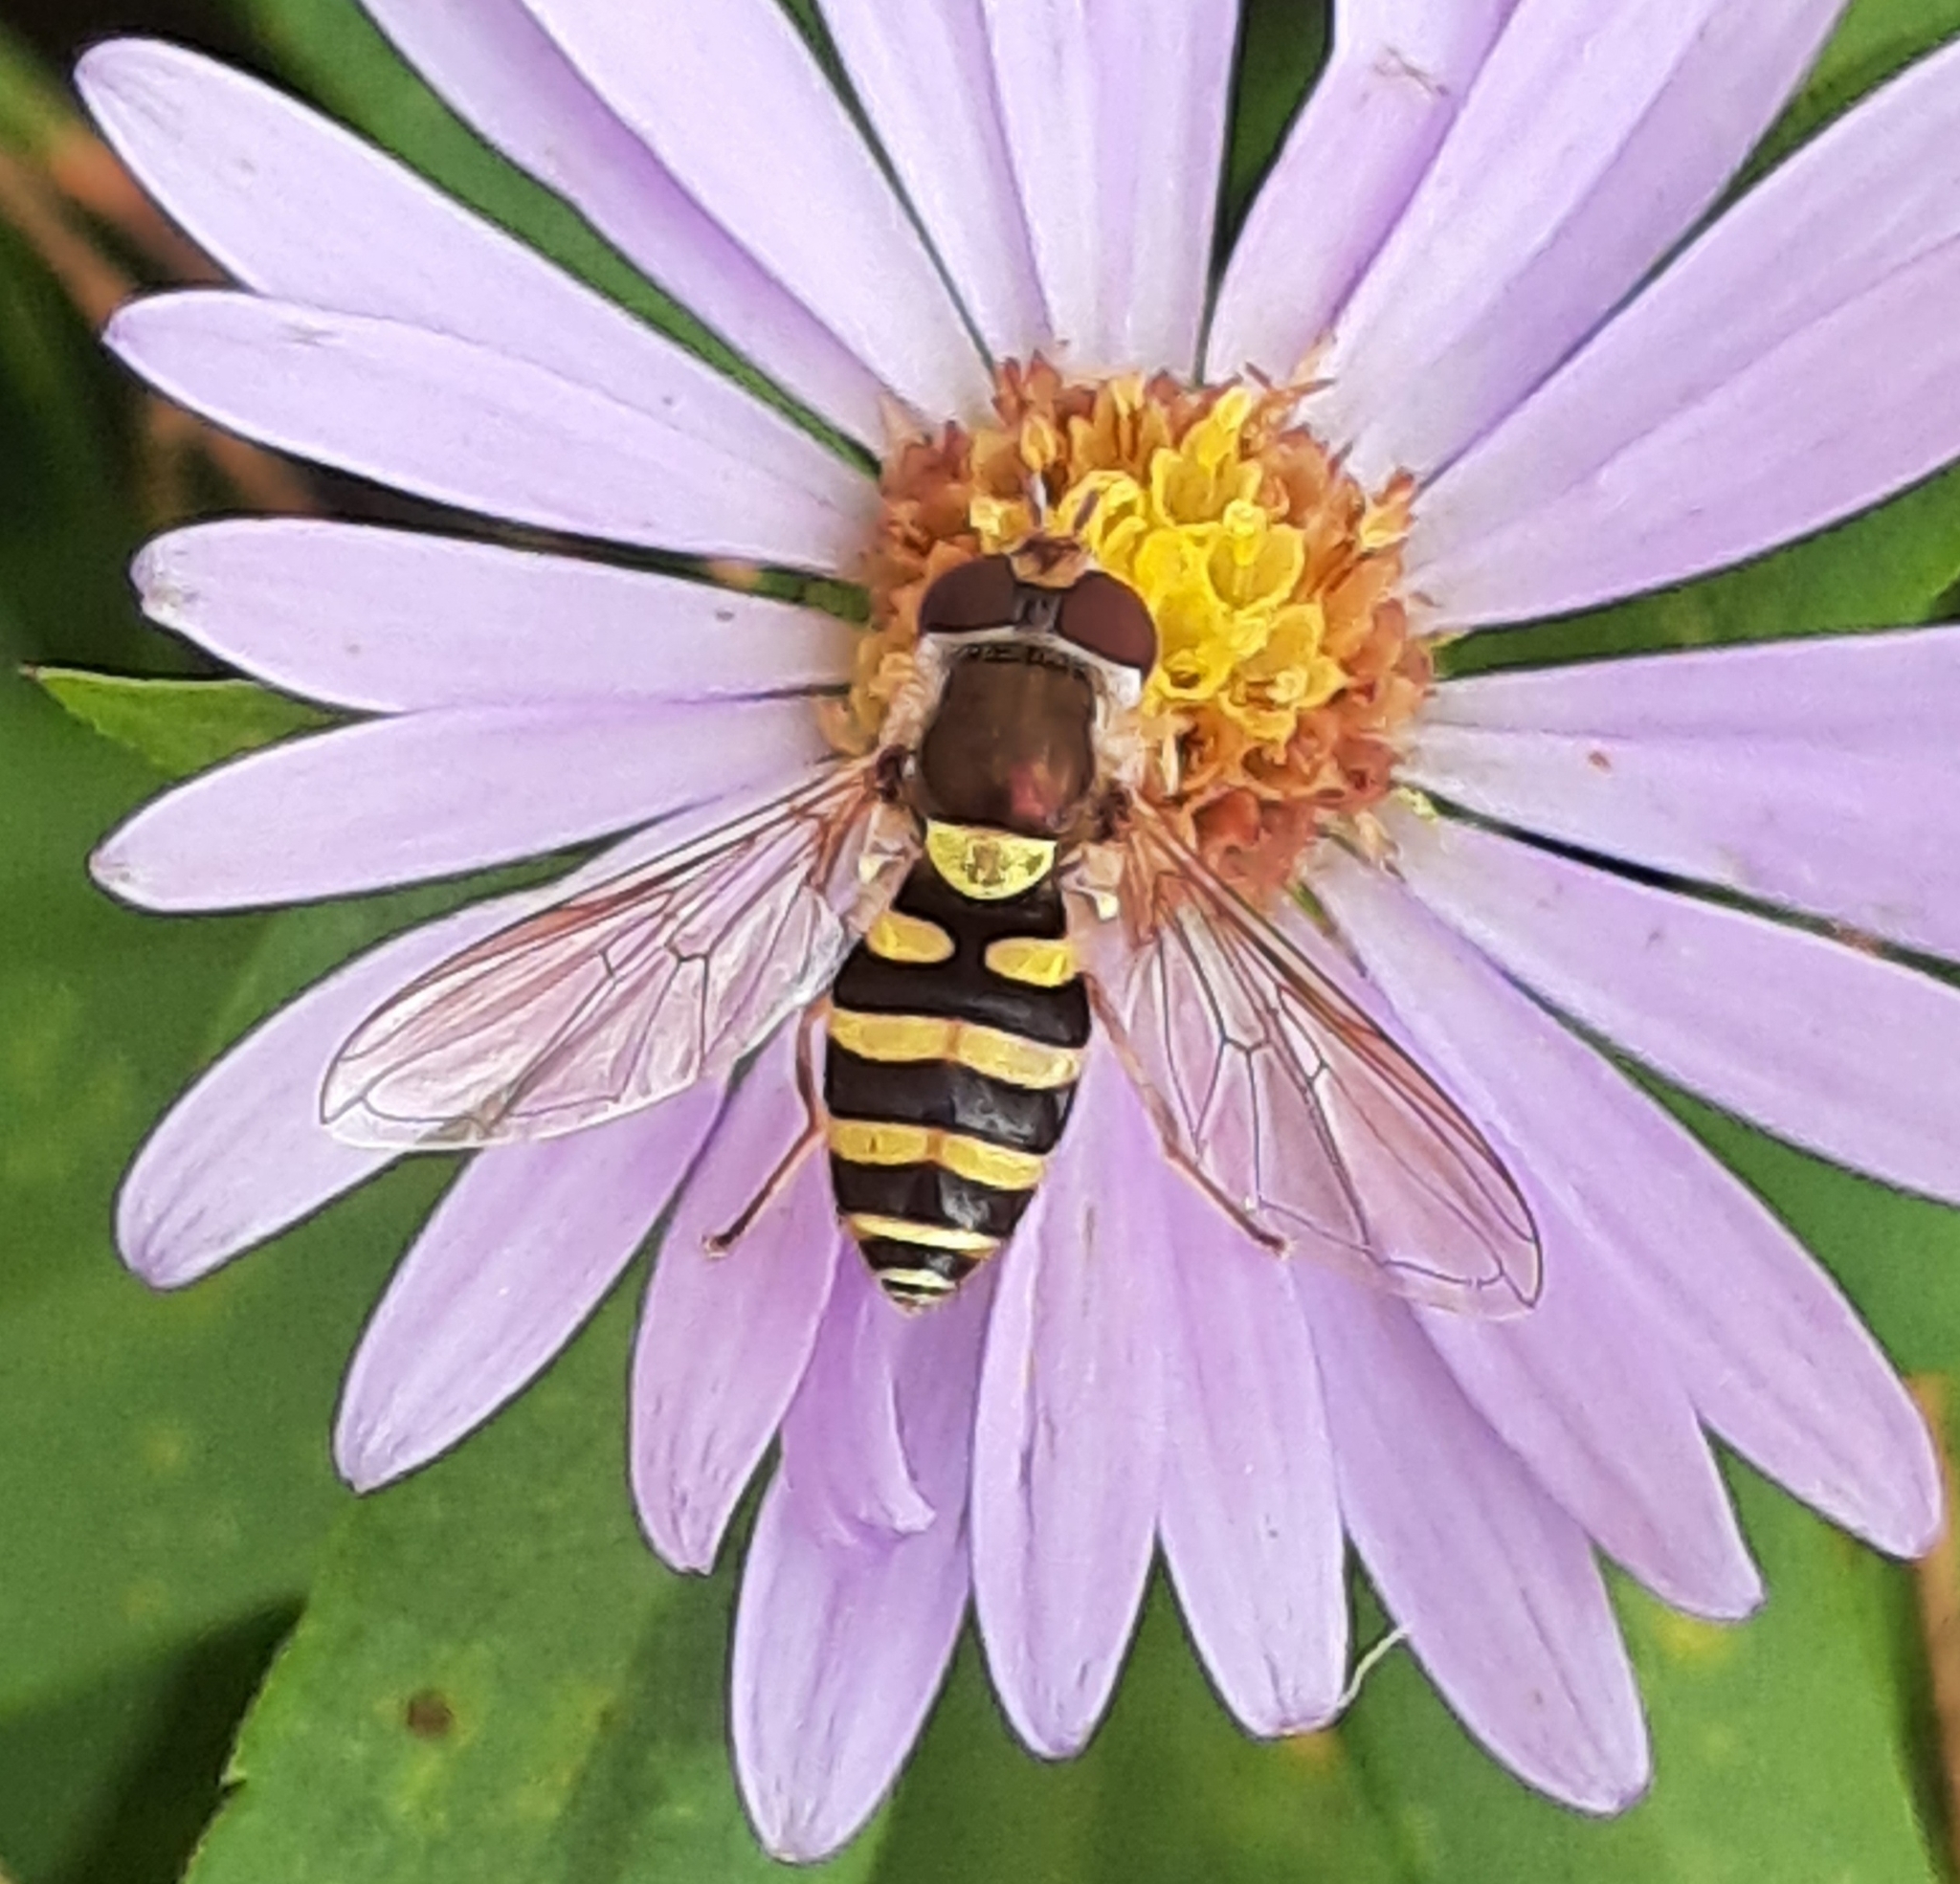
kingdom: Animalia
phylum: Arthropoda
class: Insecta
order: Diptera
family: Syrphidae
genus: Syrphus
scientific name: Syrphus
